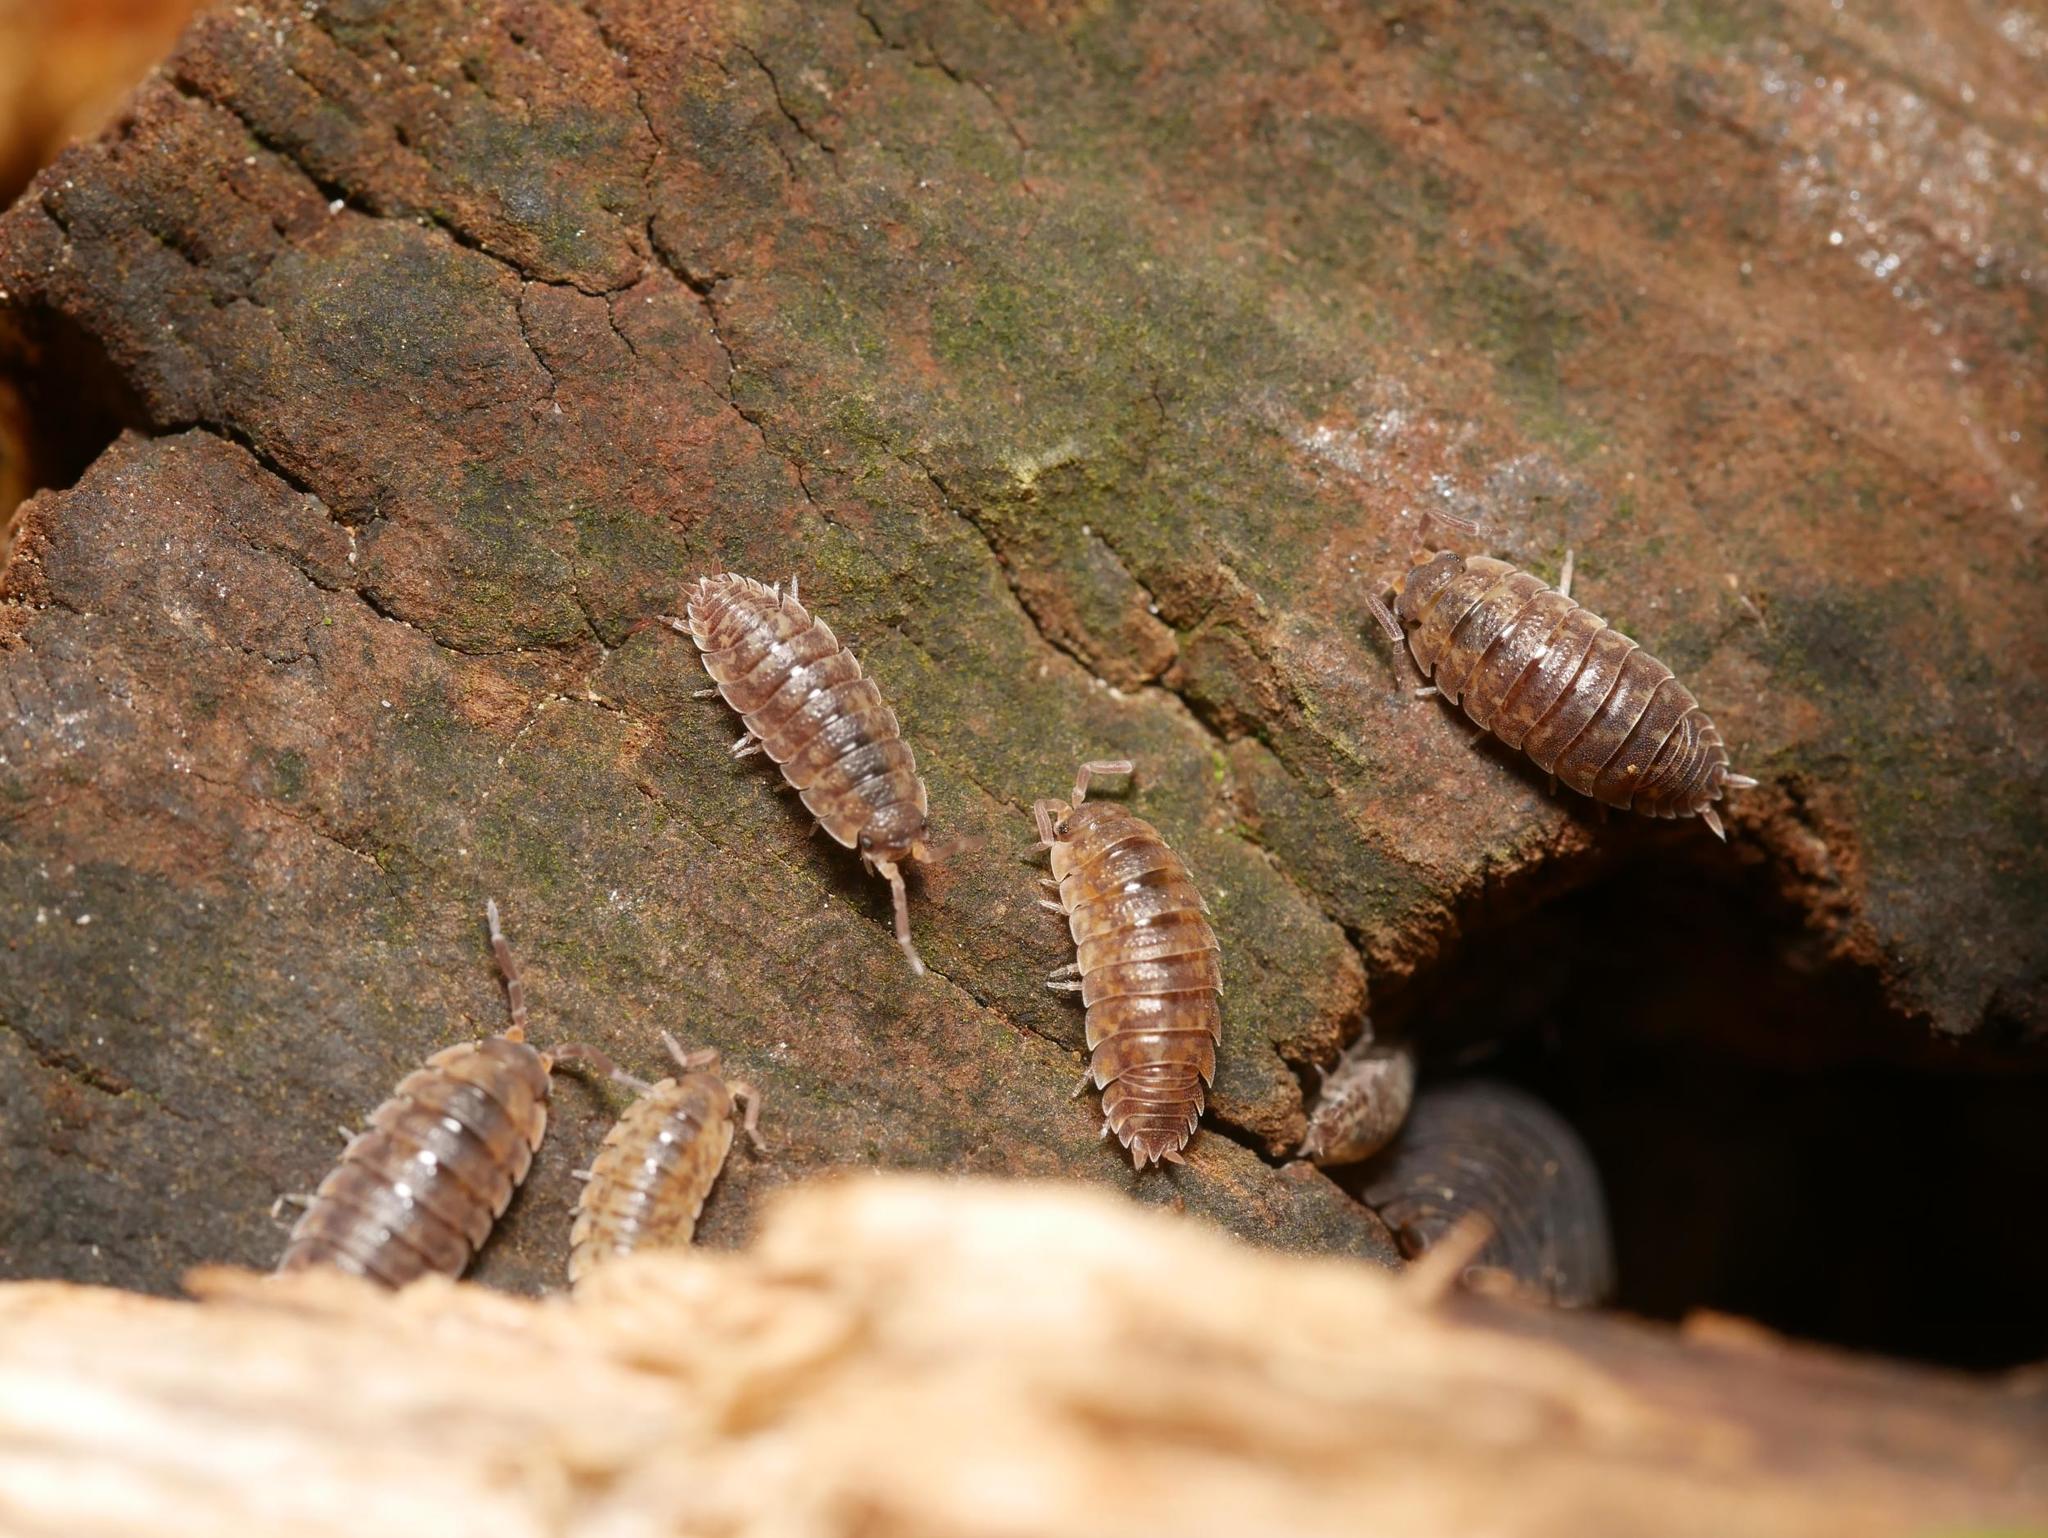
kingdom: Animalia
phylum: Arthropoda
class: Malacostraca
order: Isopoda
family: Porcellionidae
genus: Porcellio
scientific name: Porcellio scaber
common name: Common rough woodlouse
